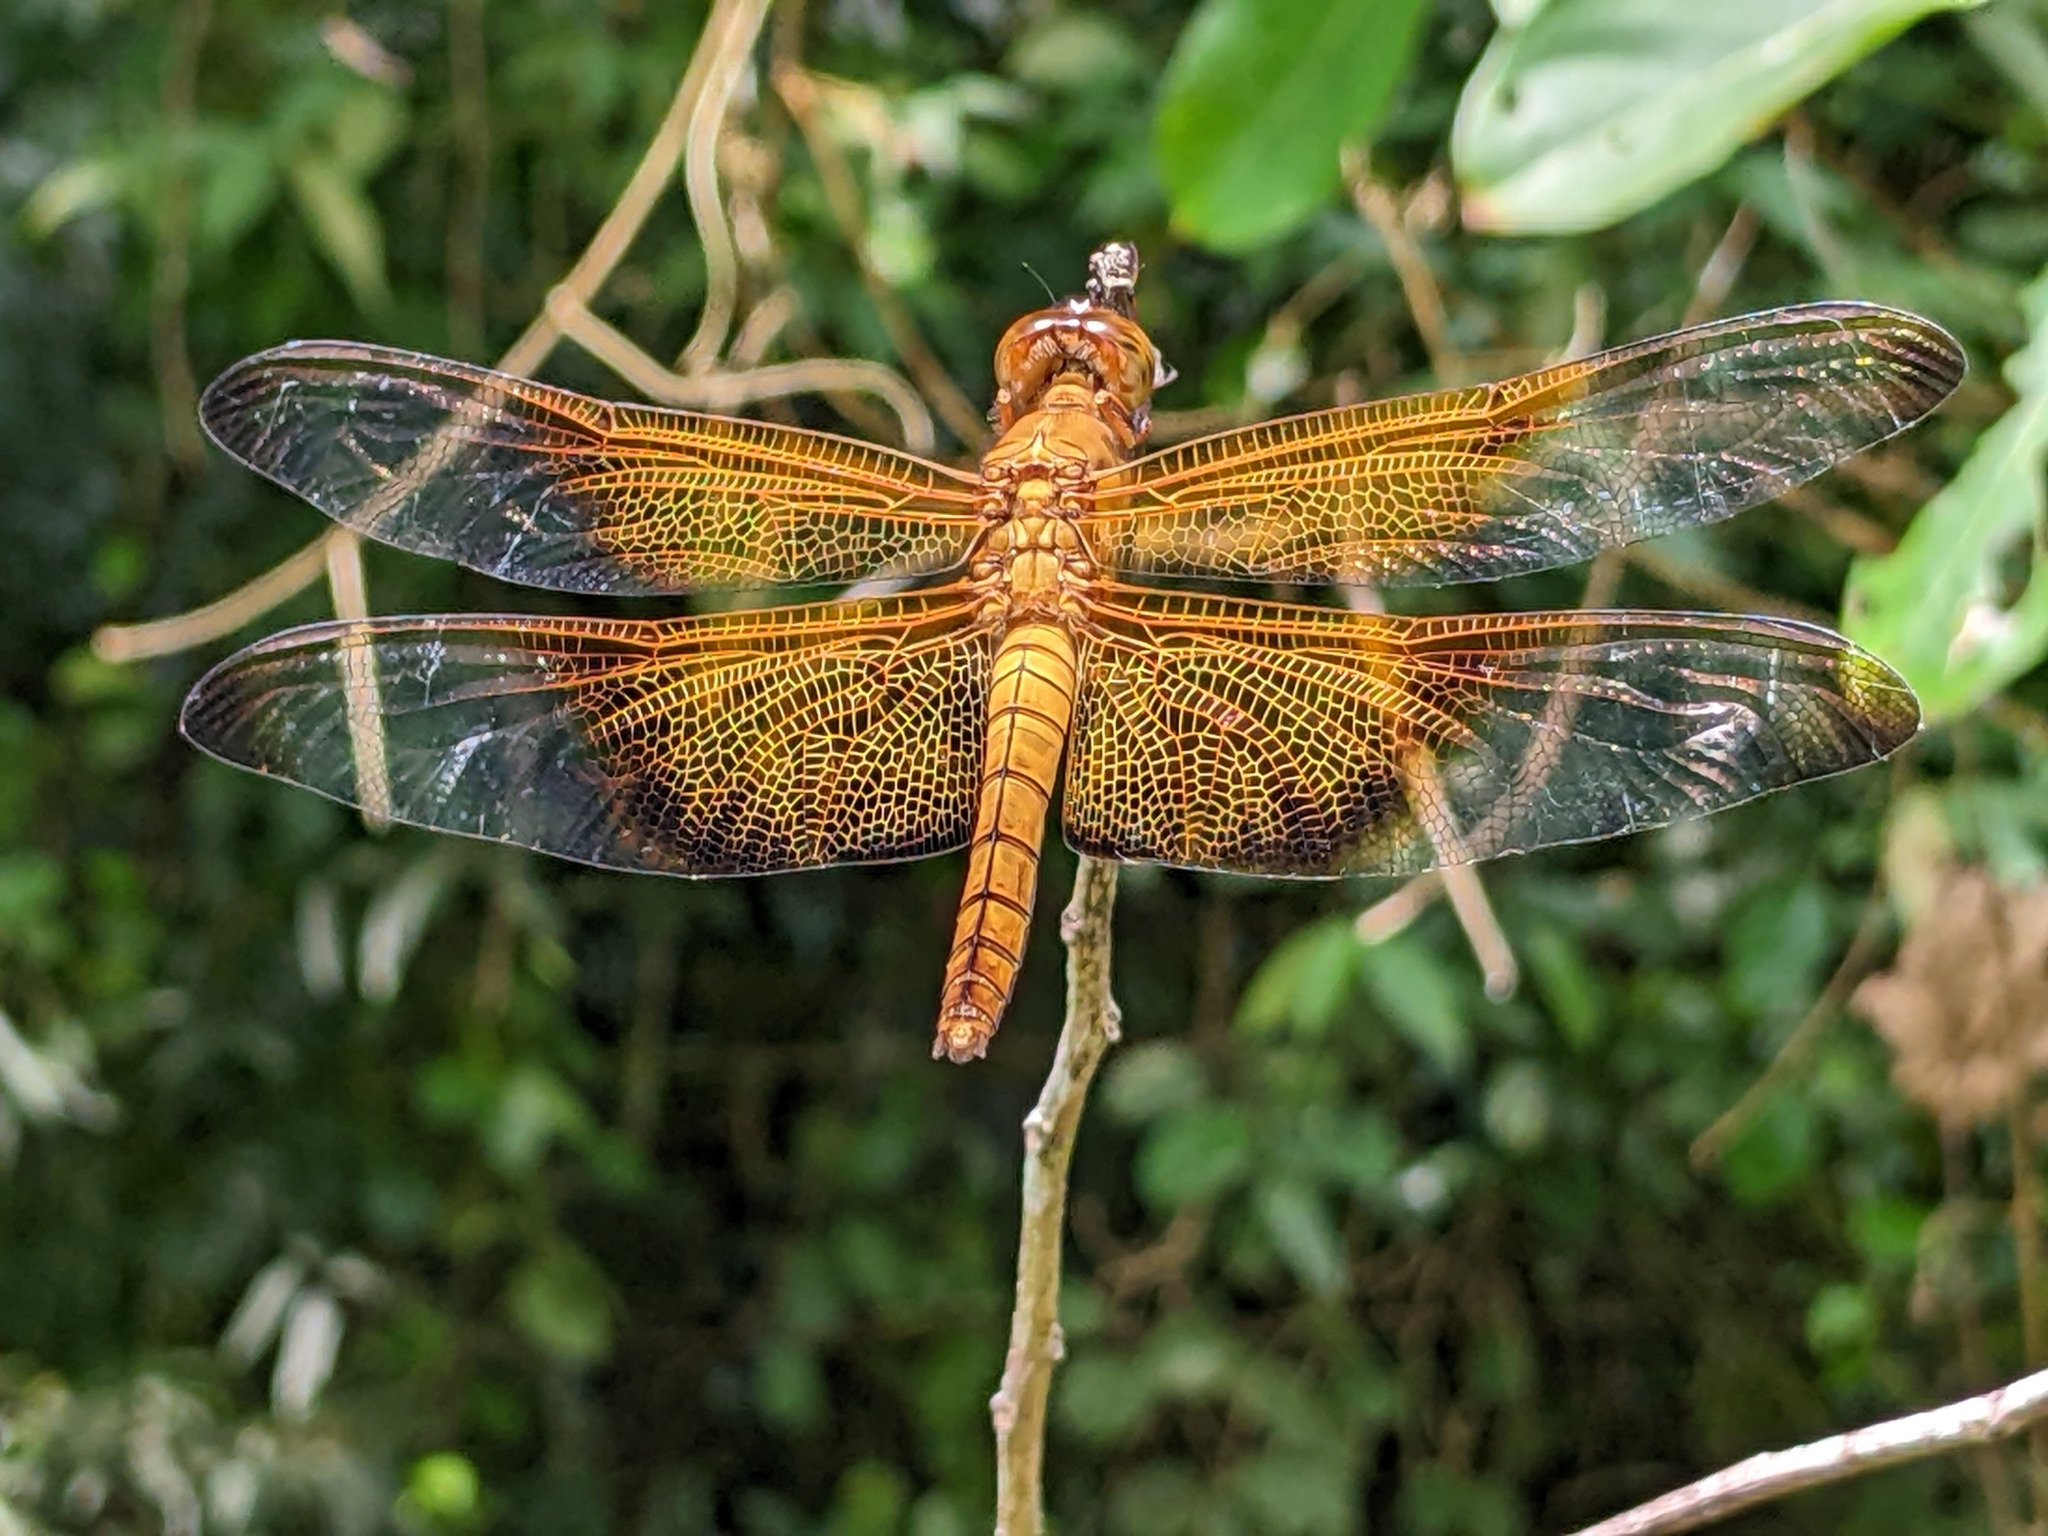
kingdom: Animalia
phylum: Arthropoda
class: Insecta
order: Odonata
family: Libellulidae
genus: Camacinia
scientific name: Camacinia gigantea
